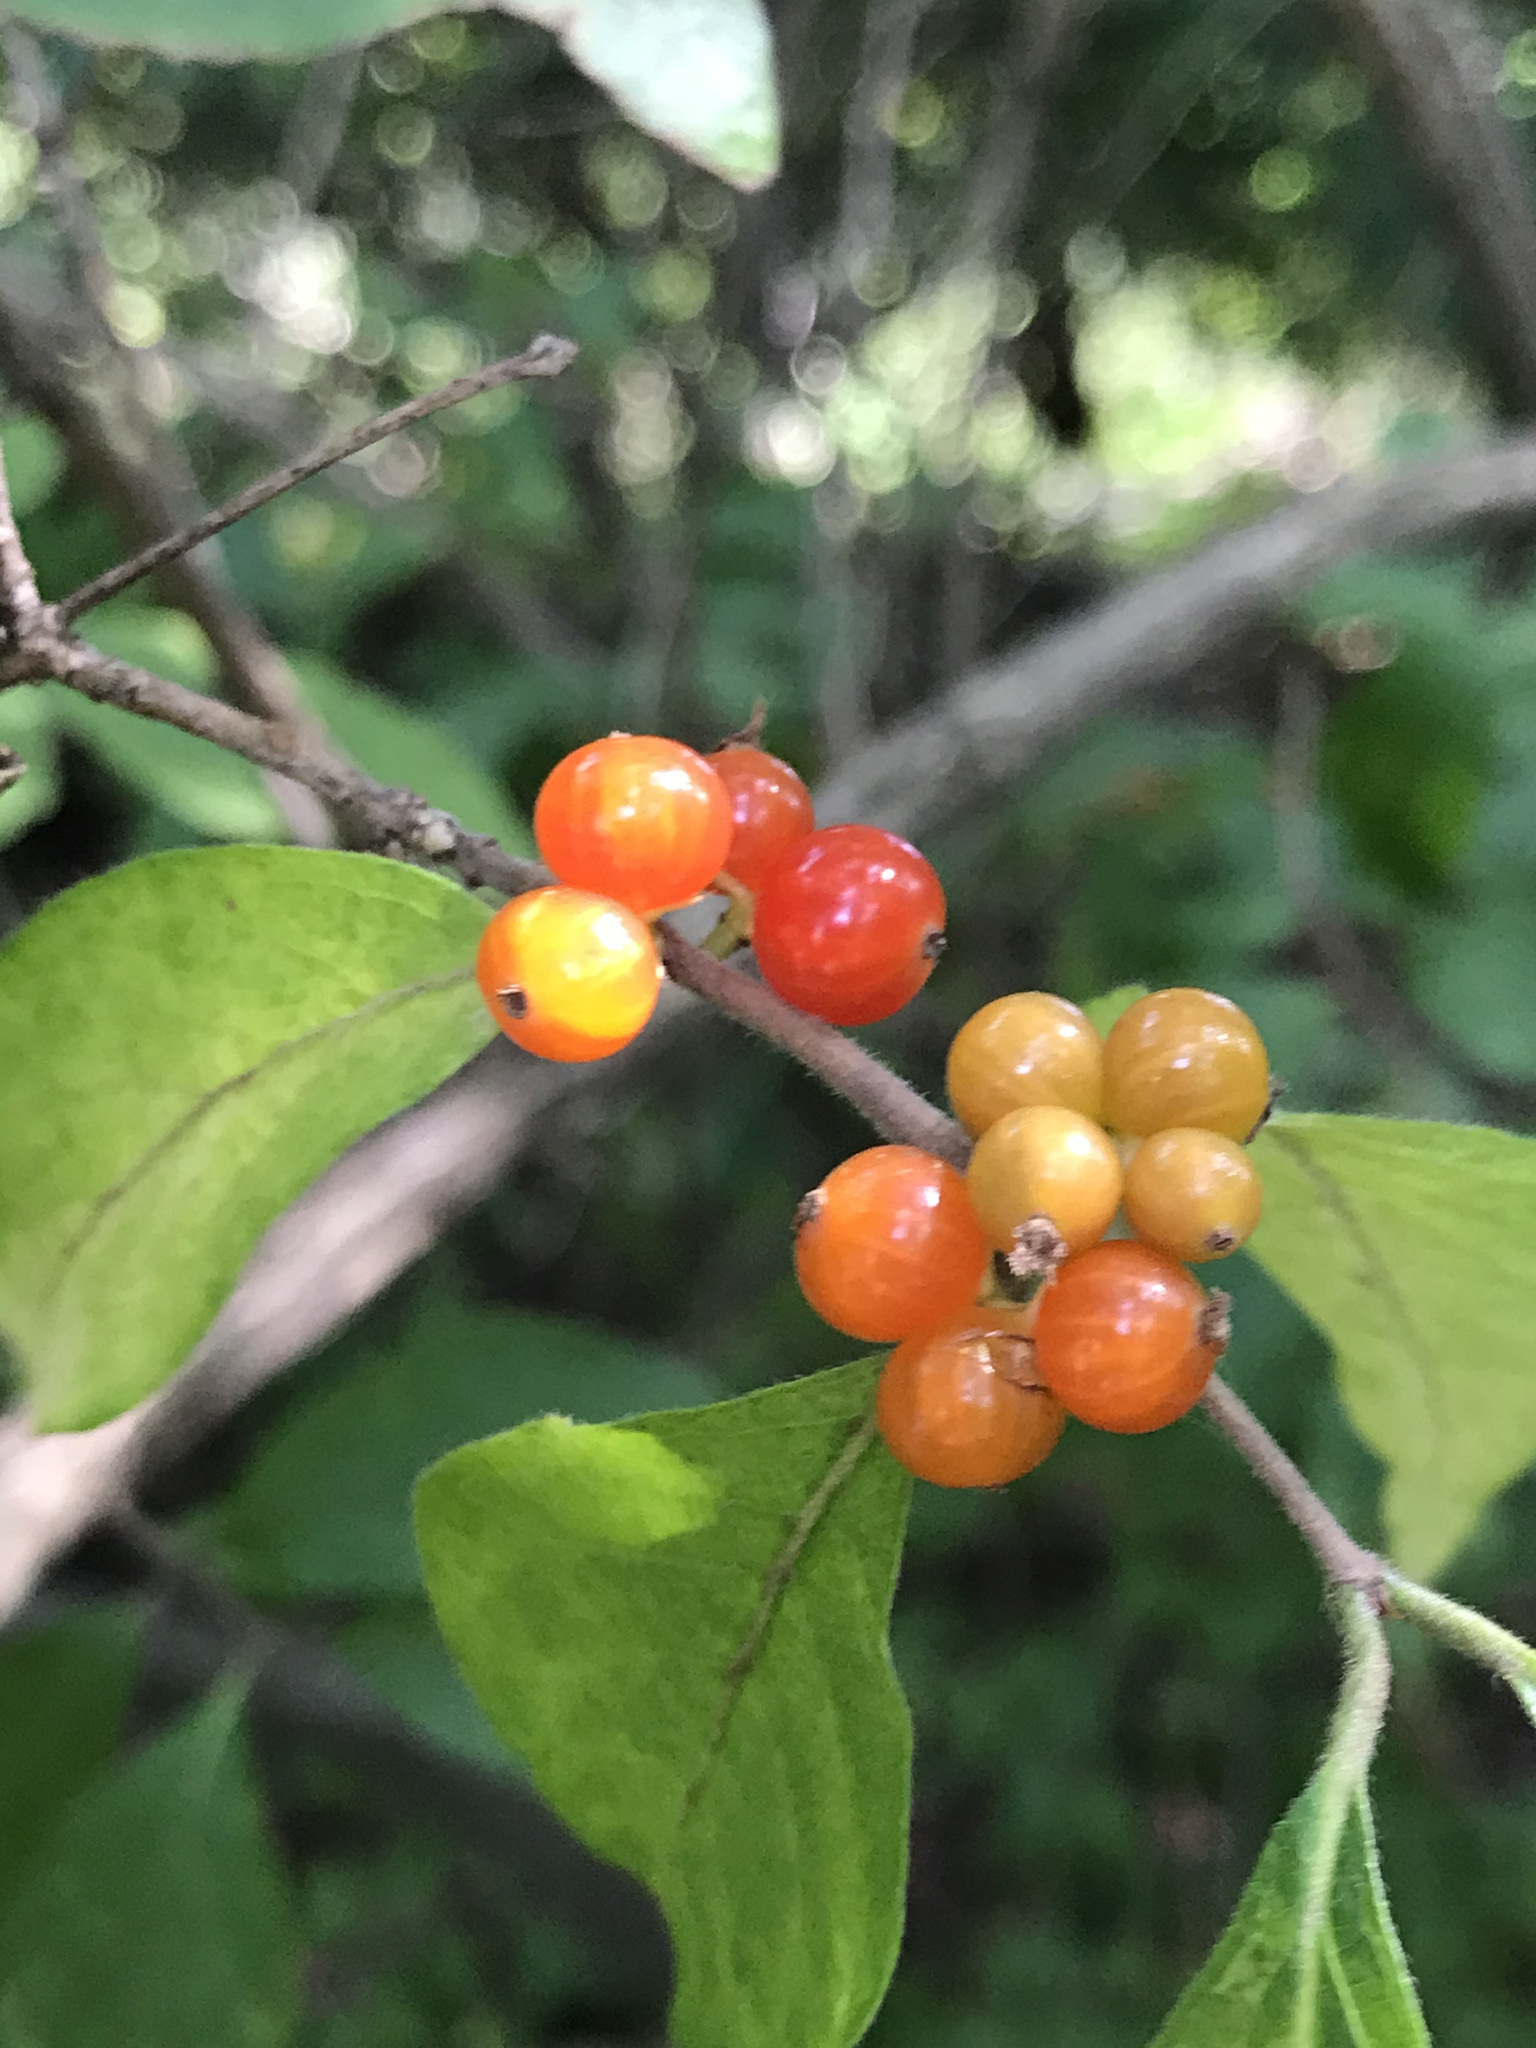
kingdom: Plantae
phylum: Tracheophyta
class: Magnoliopsida
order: Dipsacales
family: Caprifoliaceae
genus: Lonicera
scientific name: Lonicera maackii
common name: Amur honeysuckle
